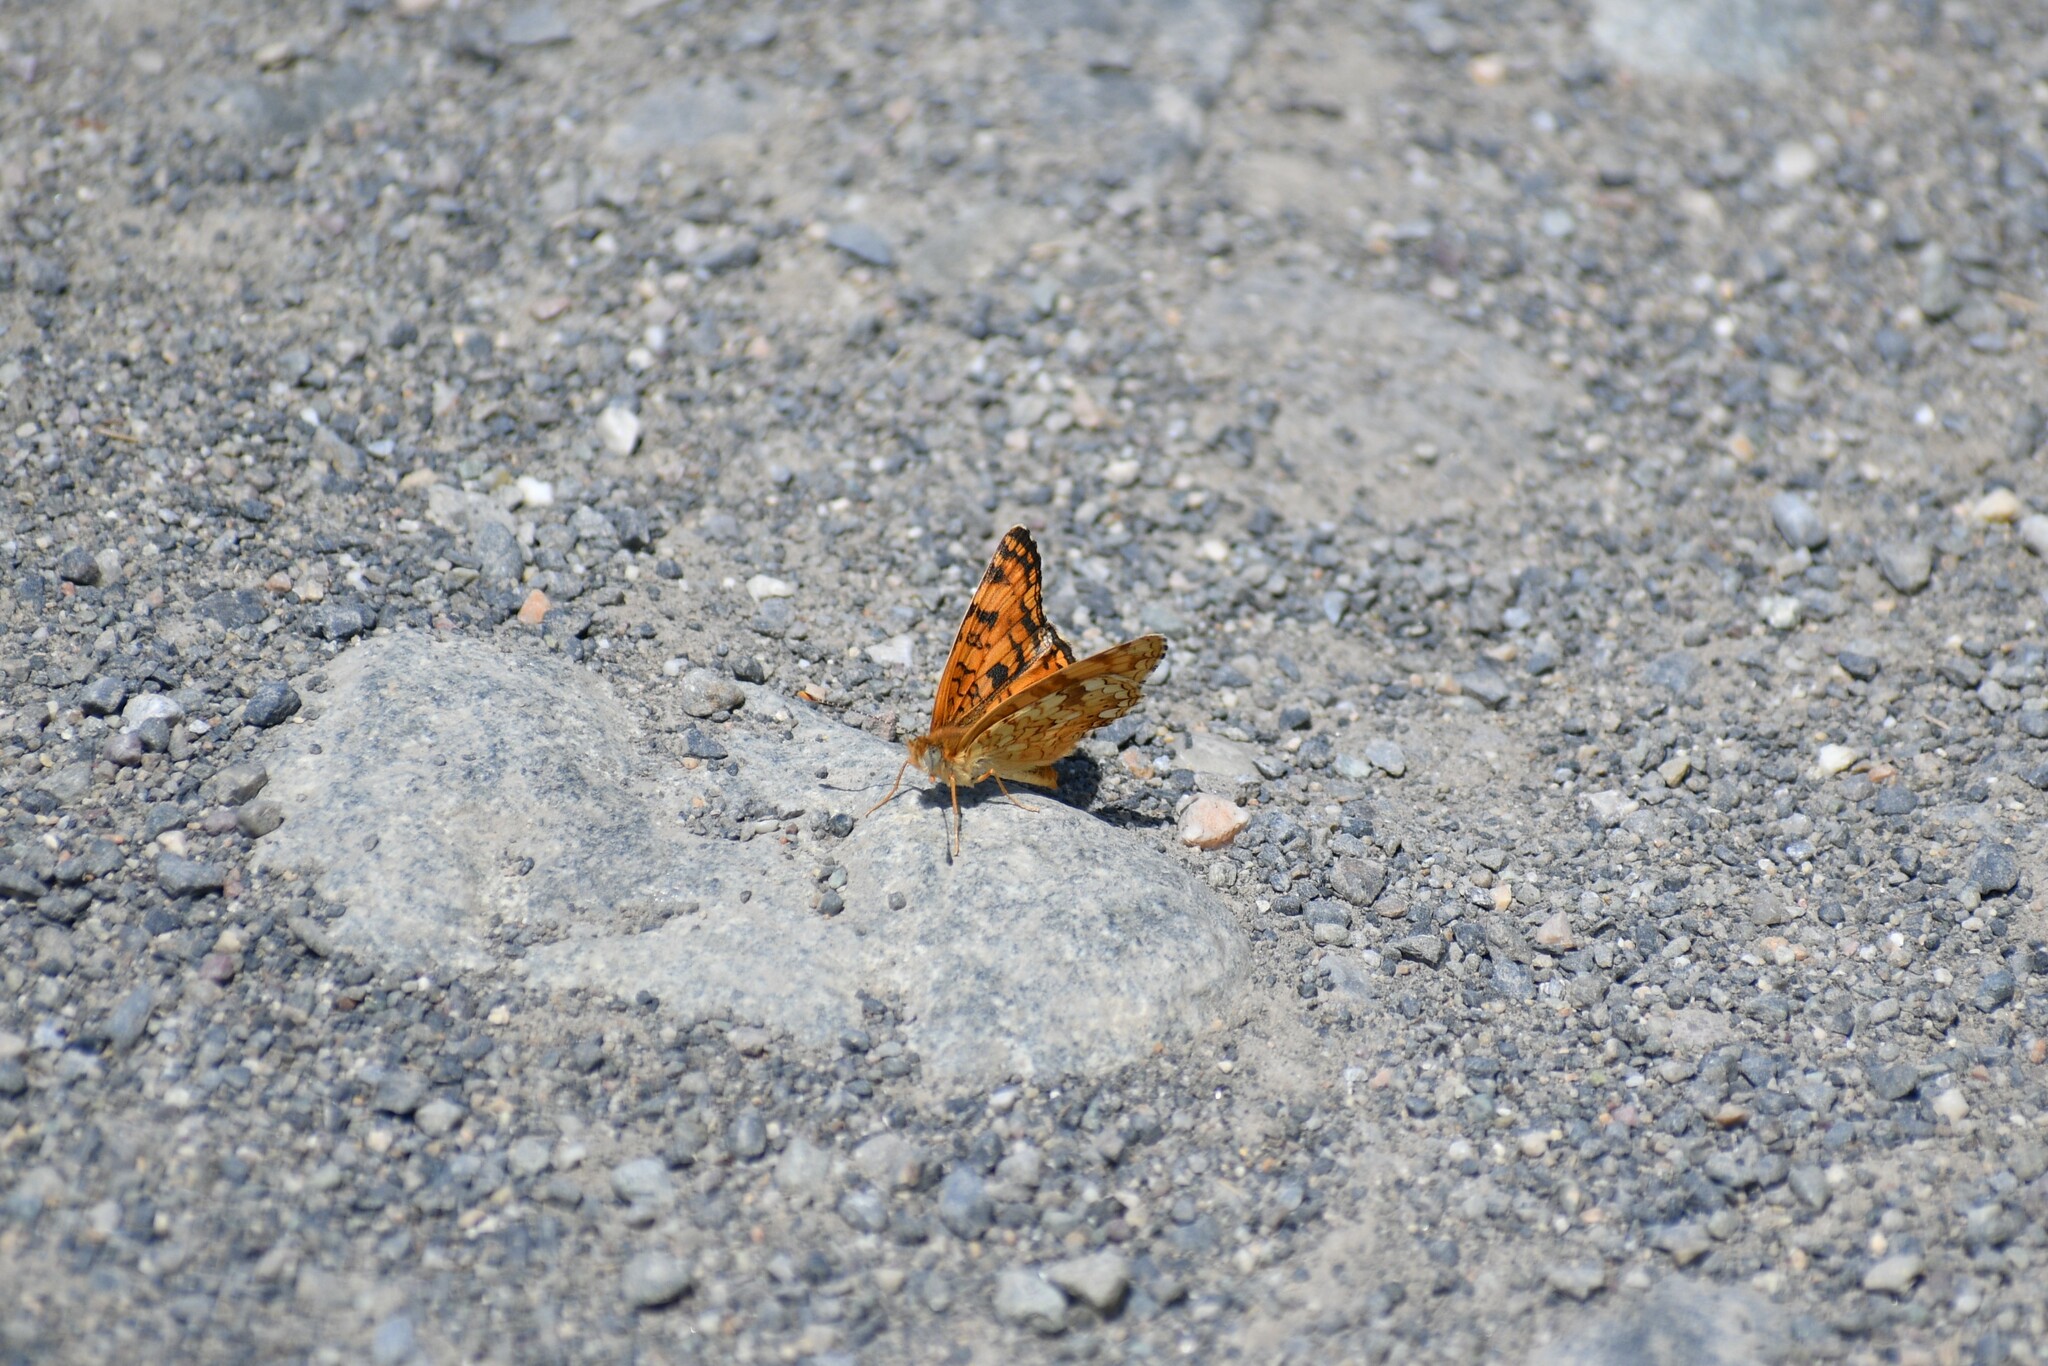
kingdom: Animalia
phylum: Arthropoda
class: Insecta
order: Lepidoptera
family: Nymphalidae
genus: Phyciodes
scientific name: Phyciodes pallida
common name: Pale crescent
